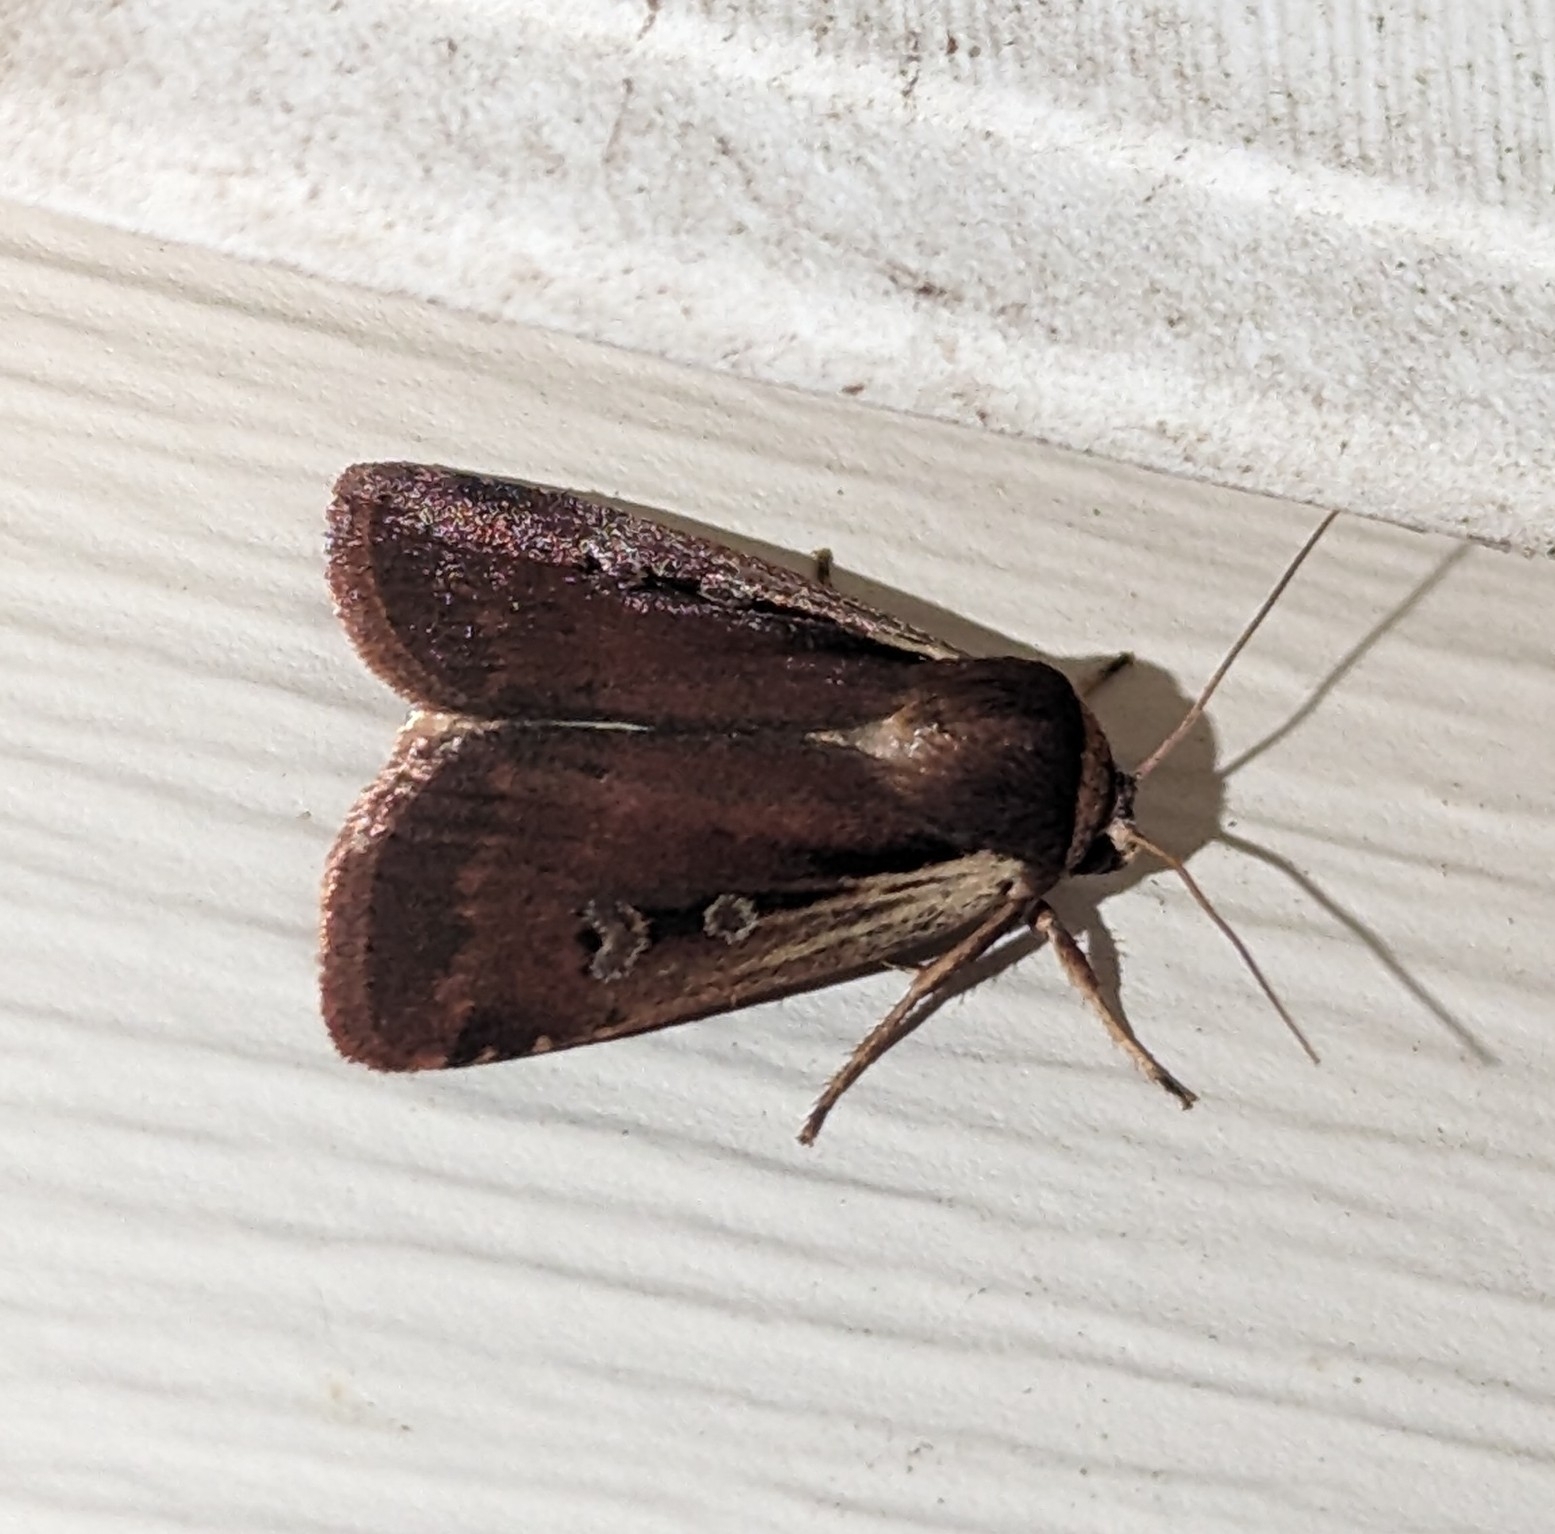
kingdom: Animalia
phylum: Arthropoda
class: Insecta
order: Lepidoptera
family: Noctuidae
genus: Ochropleura
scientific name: Ochropleura implecta
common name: Flame-shouldered dart
